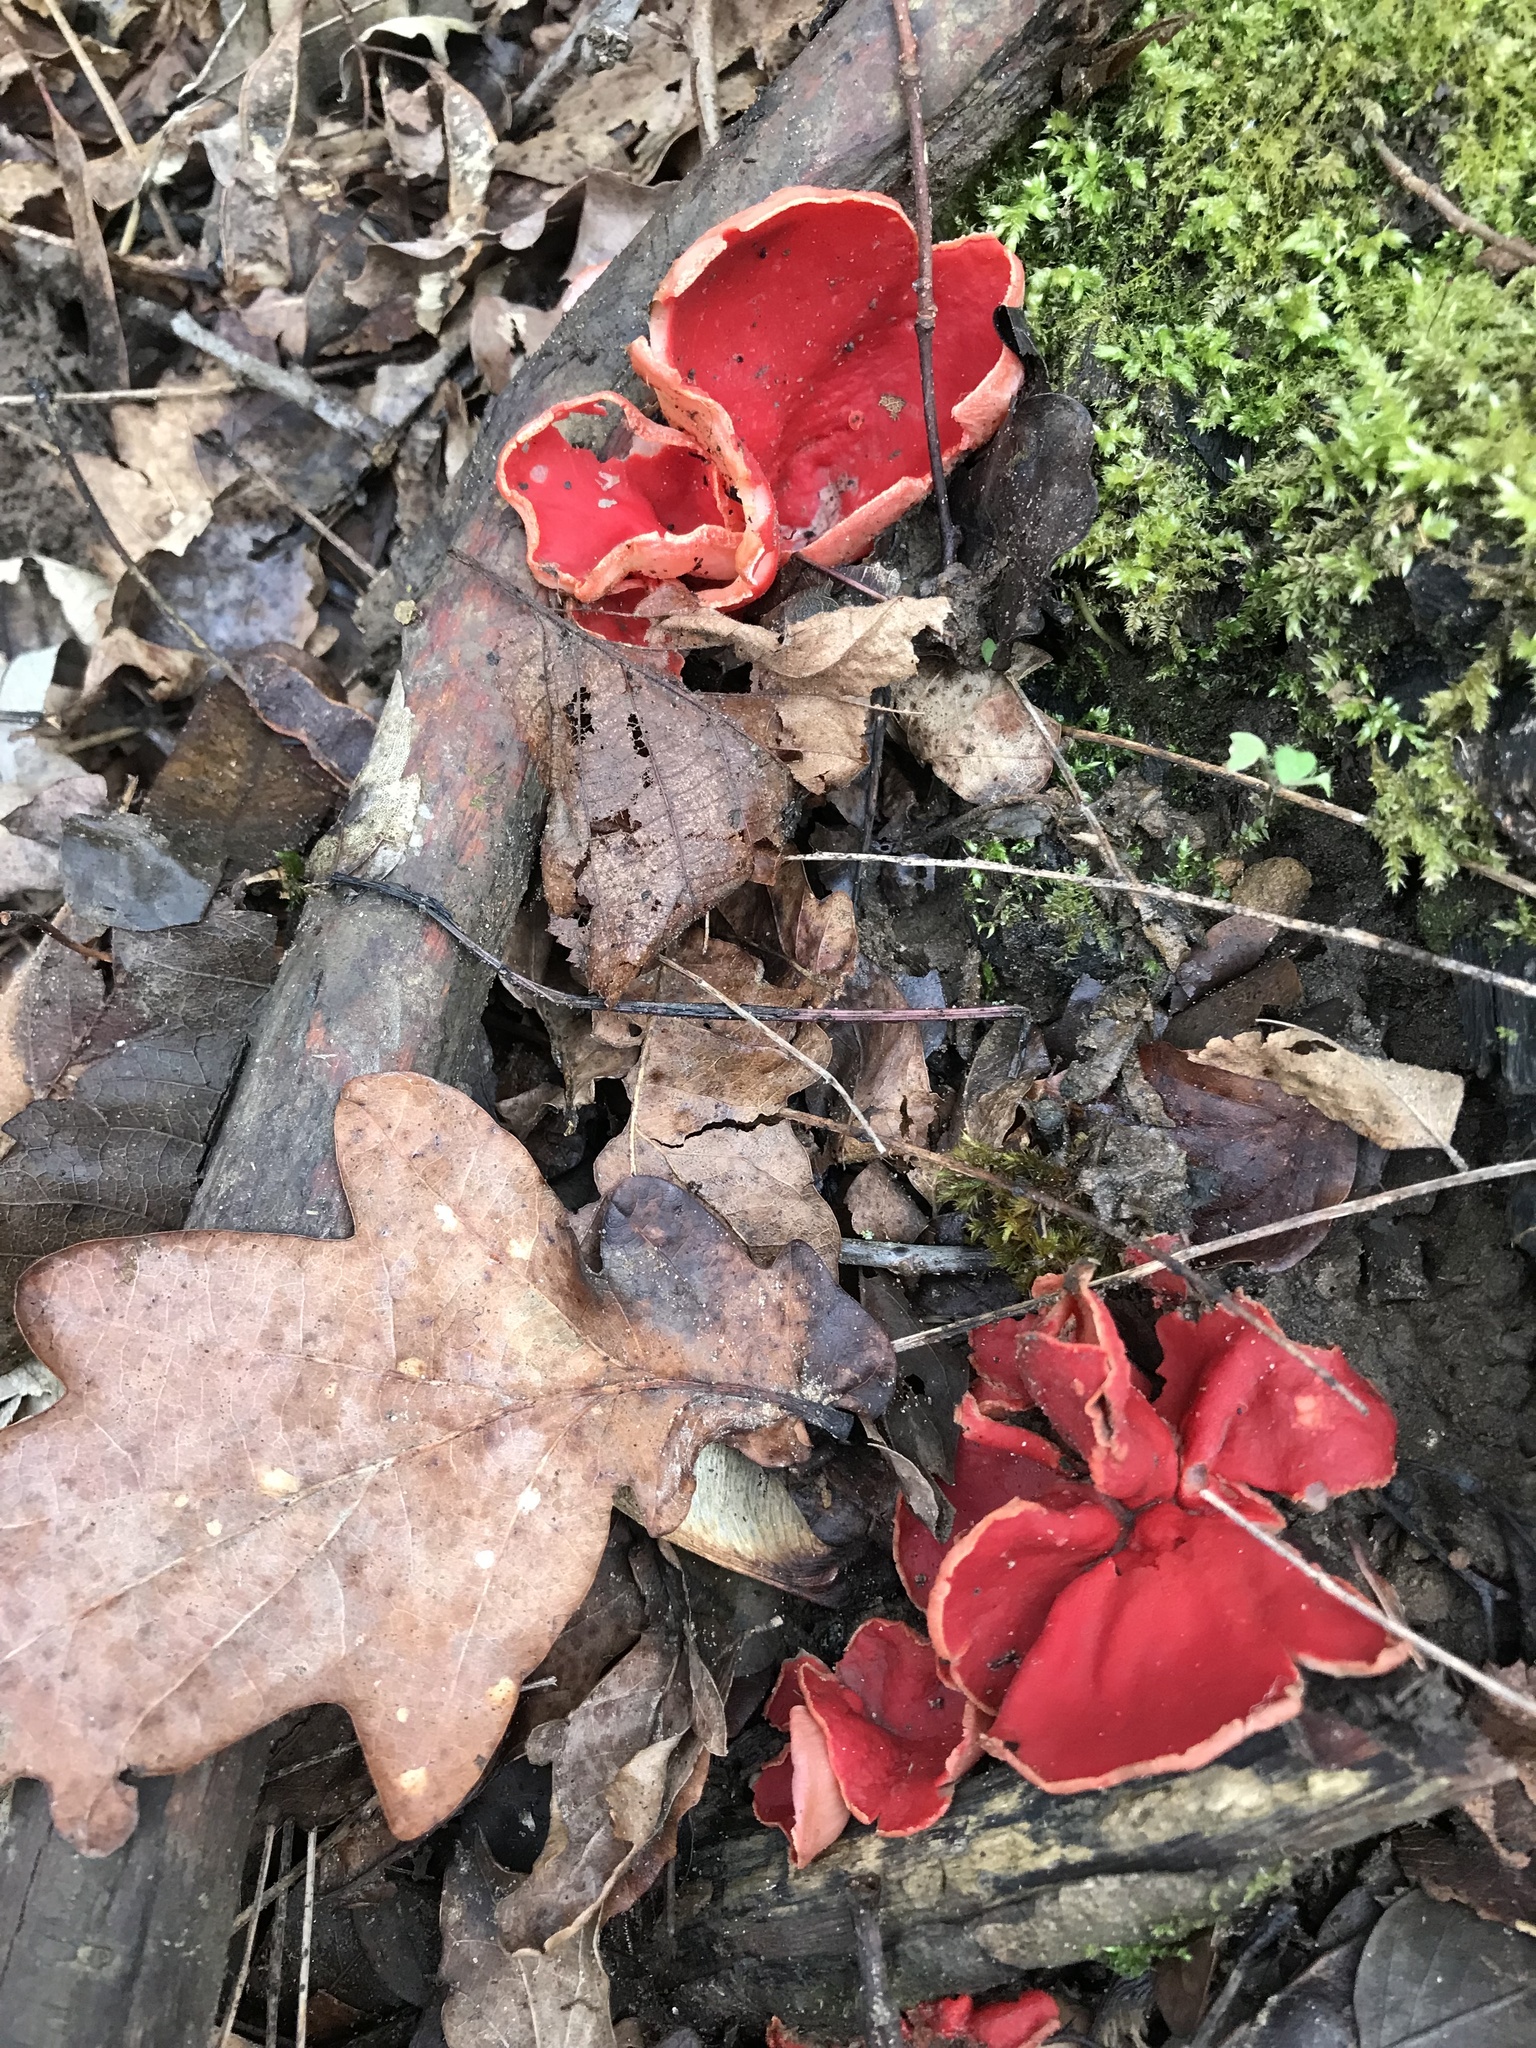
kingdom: Fungi
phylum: Ascomycota
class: Pezizomycetes
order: Pezizales
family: Sarcoscyphaceae
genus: Sarcoscypha
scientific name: Sarcoscypha
